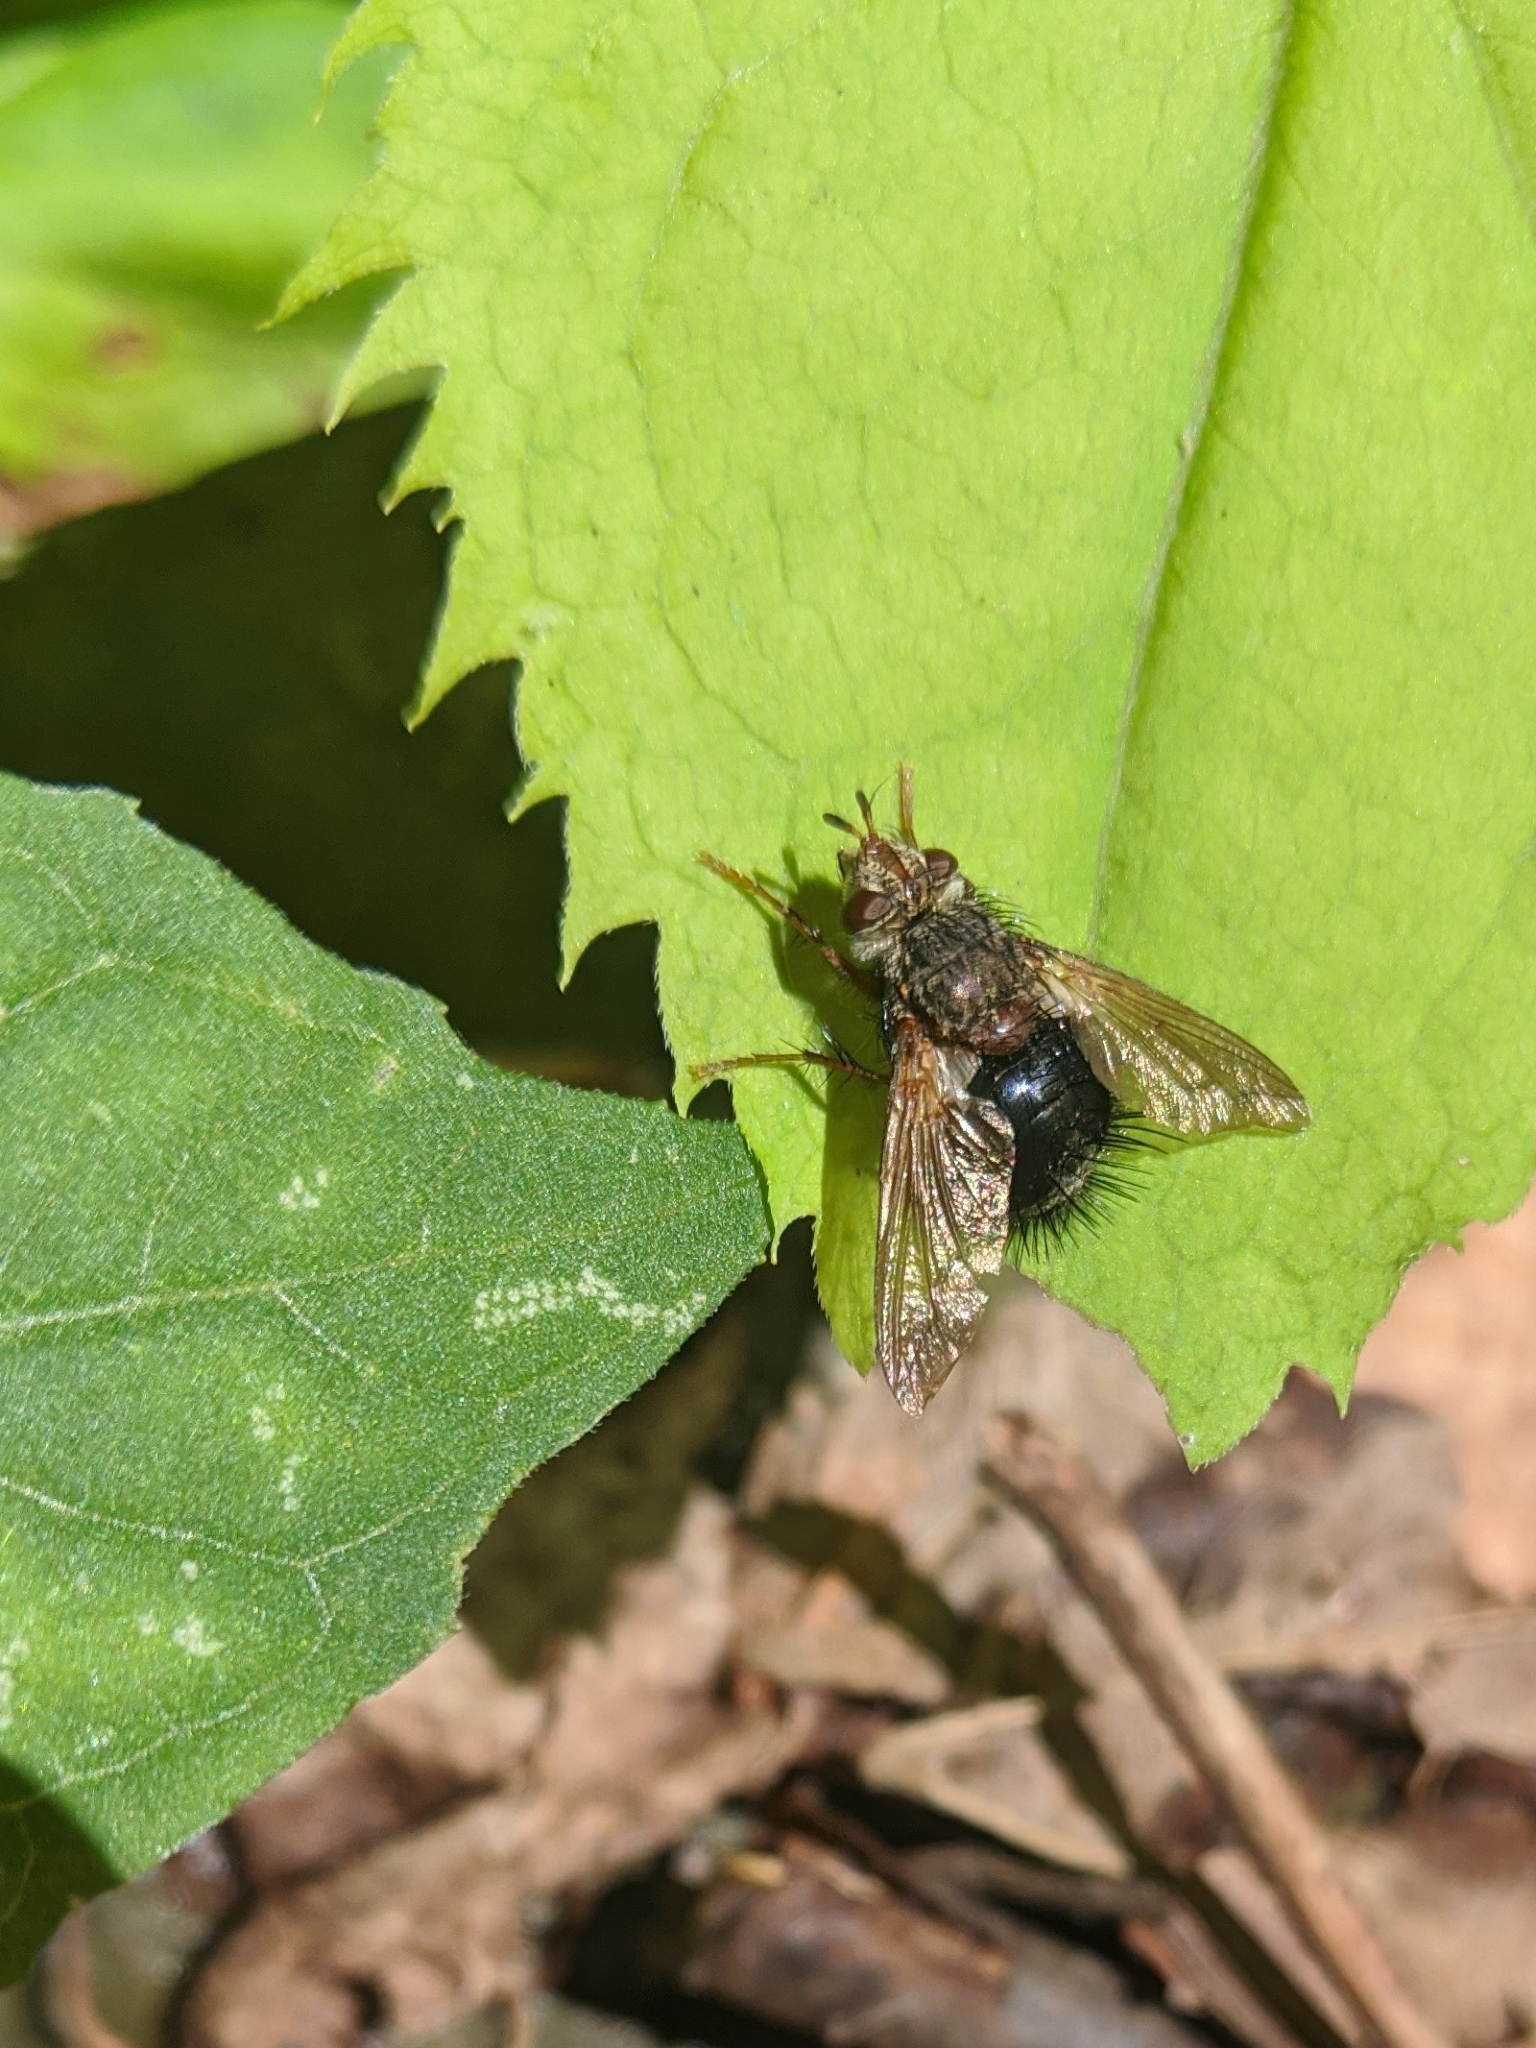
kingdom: Animalia
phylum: Arthropoda
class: Insecta
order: Diptera
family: Tachinidae
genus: Epalpus
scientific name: Epalpus signifer
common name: Early tachinid fly
